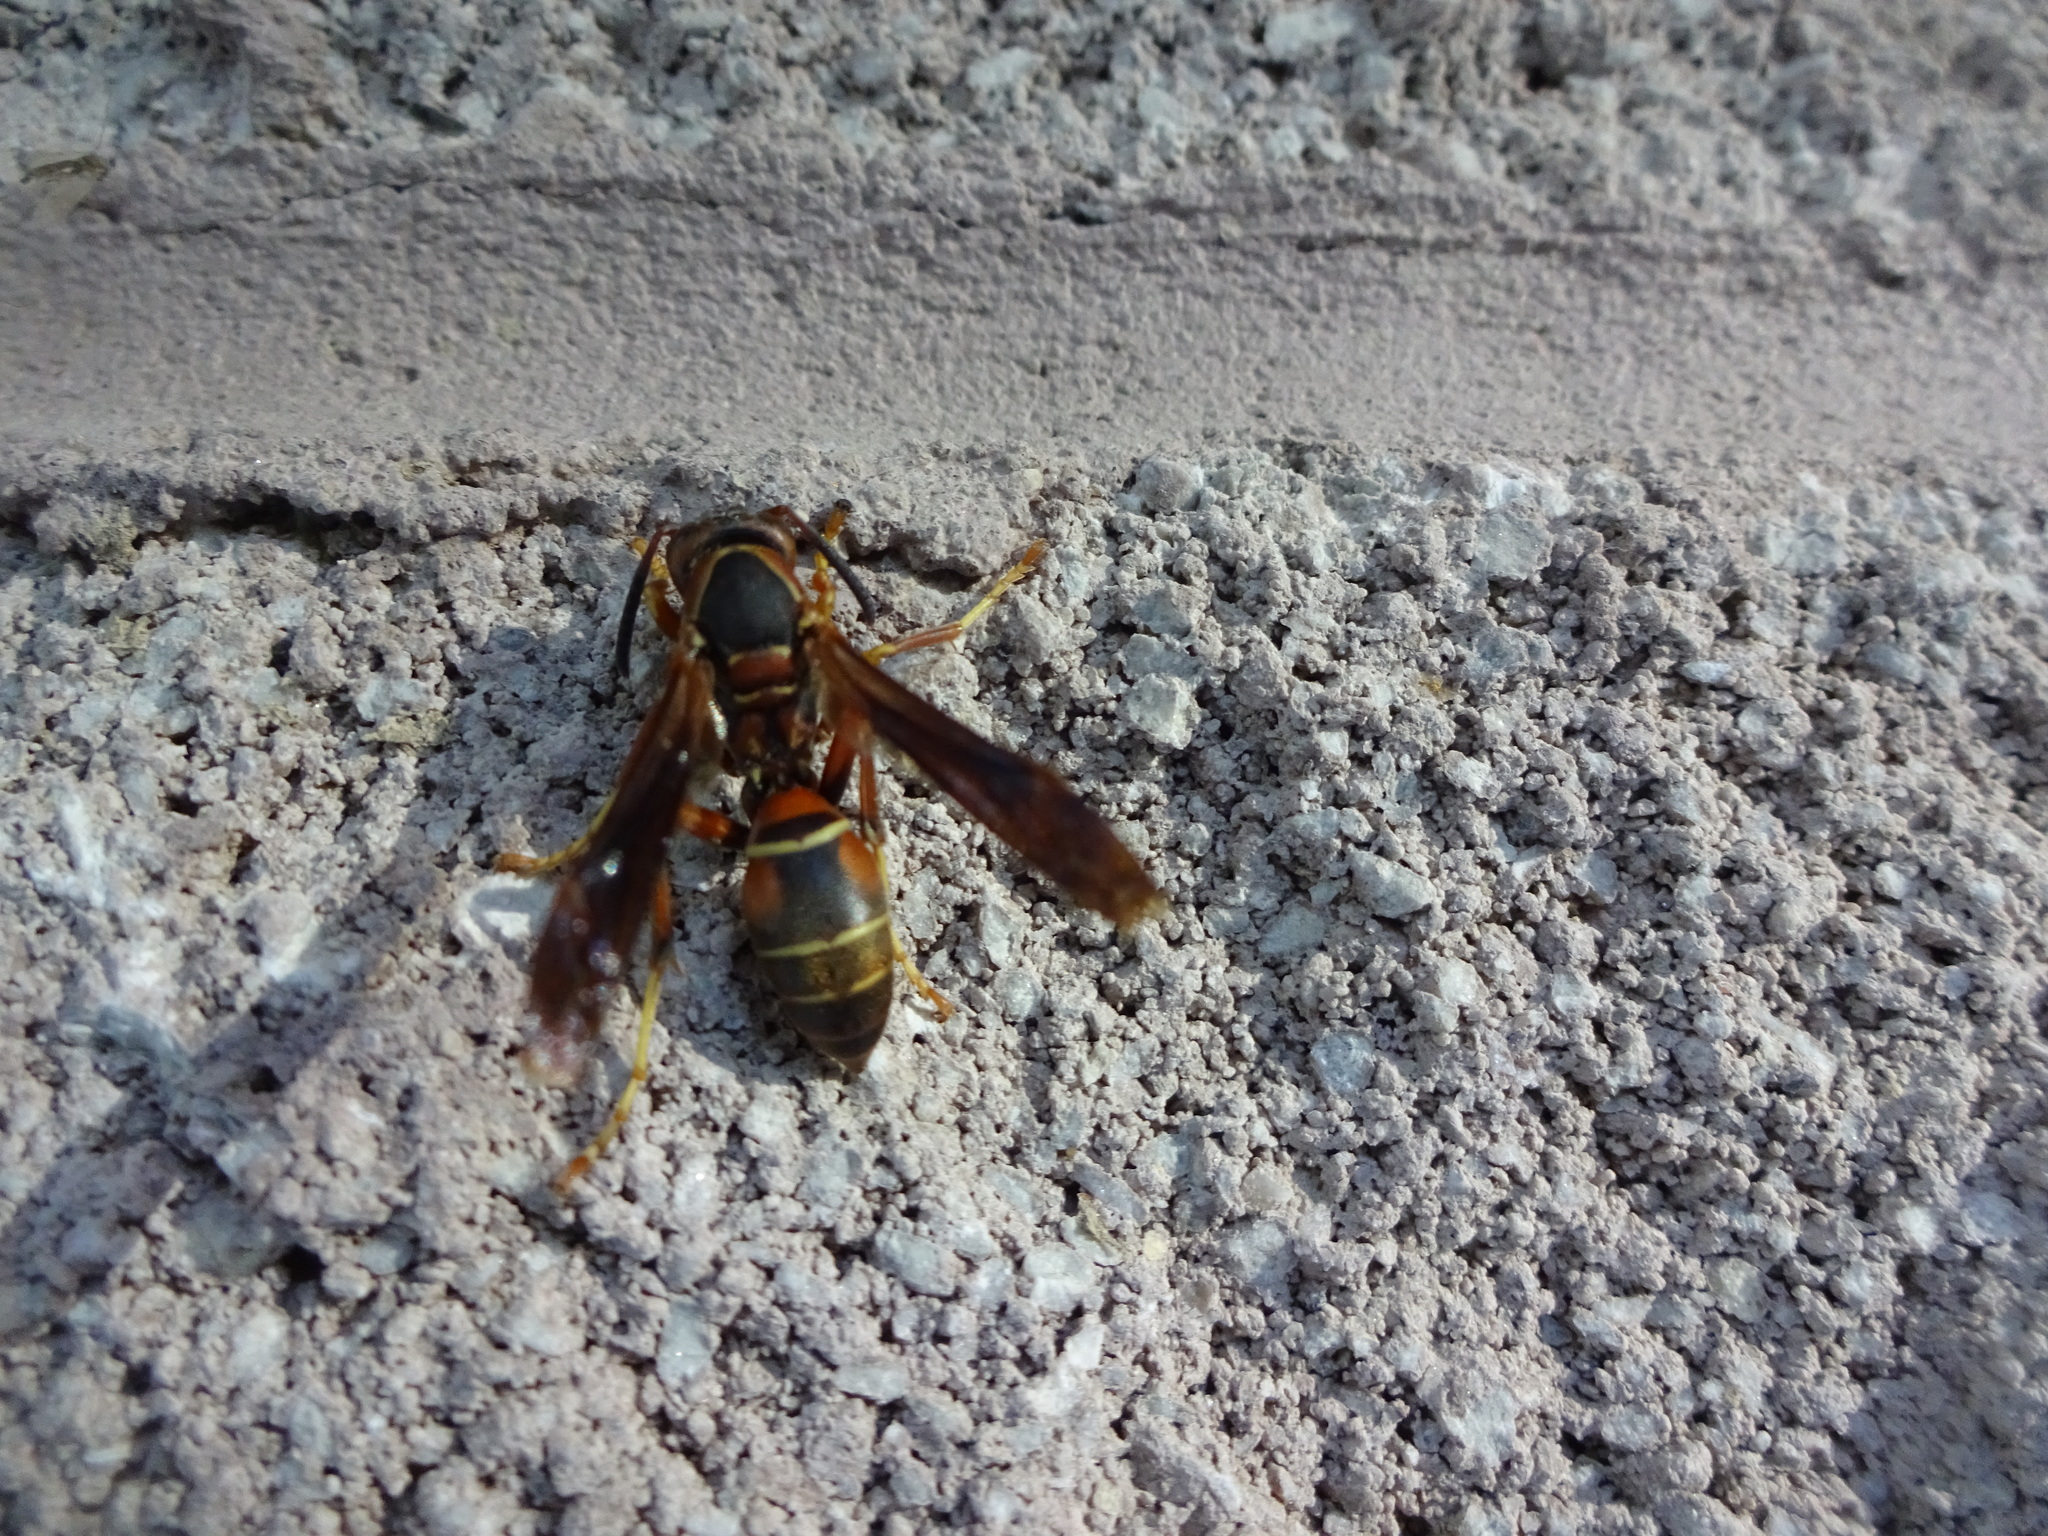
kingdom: Animalia
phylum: Arthropoda
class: Insecta
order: Hymenoptera
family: Eumenidae
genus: Polistes
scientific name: Polistes fuscatus
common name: Dark paper wasp
